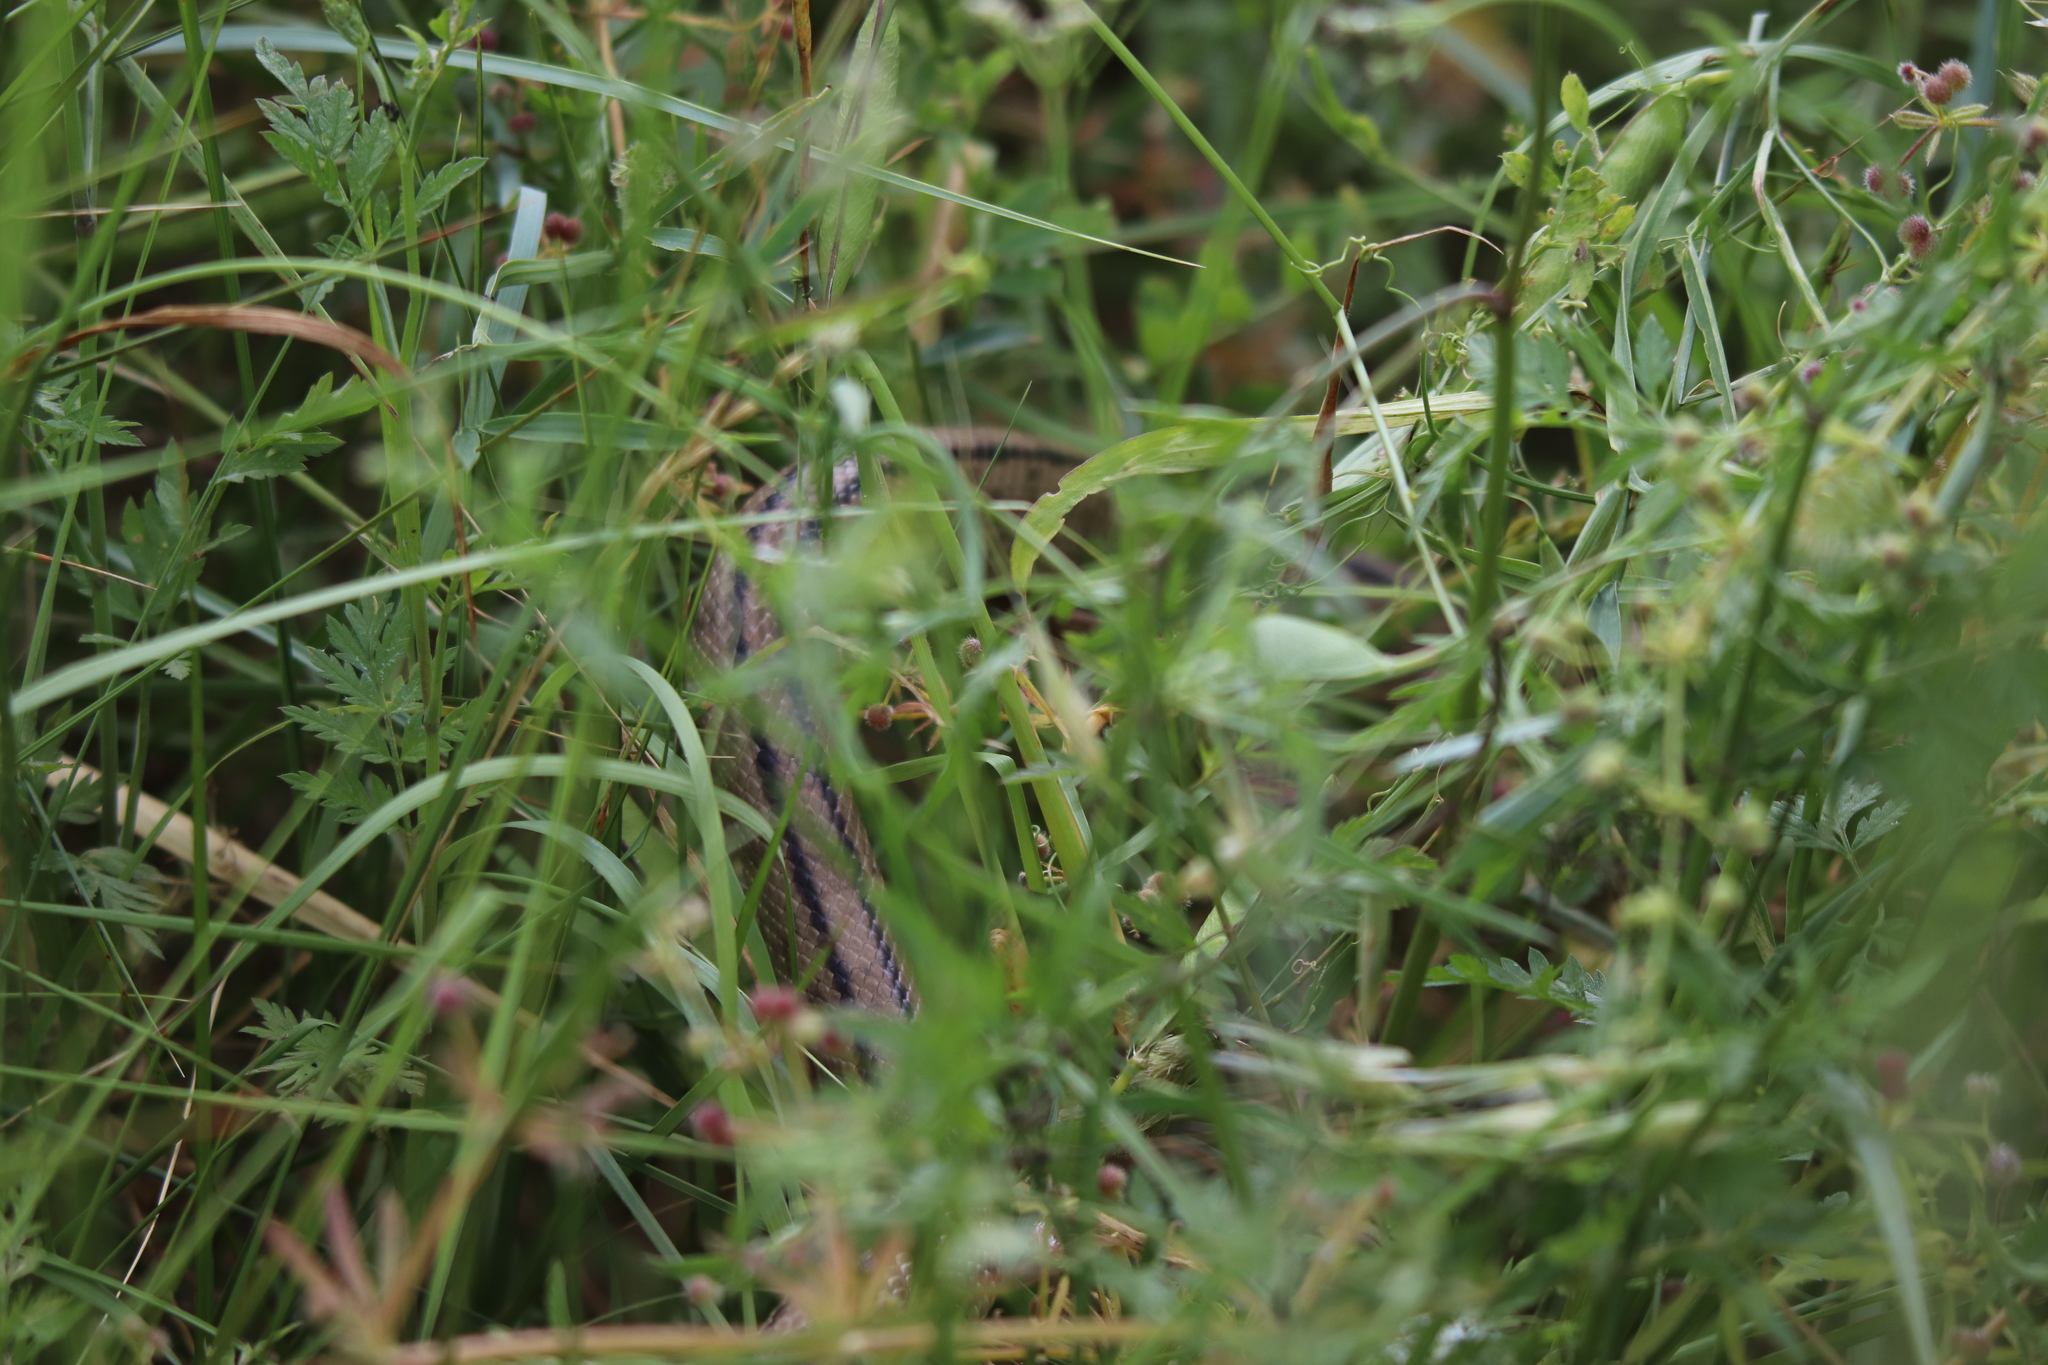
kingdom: Animalia
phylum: Chordata
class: Squamata
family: Colubridae
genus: Zamenis
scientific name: Zamenis scalaris
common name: Ladder snakes
